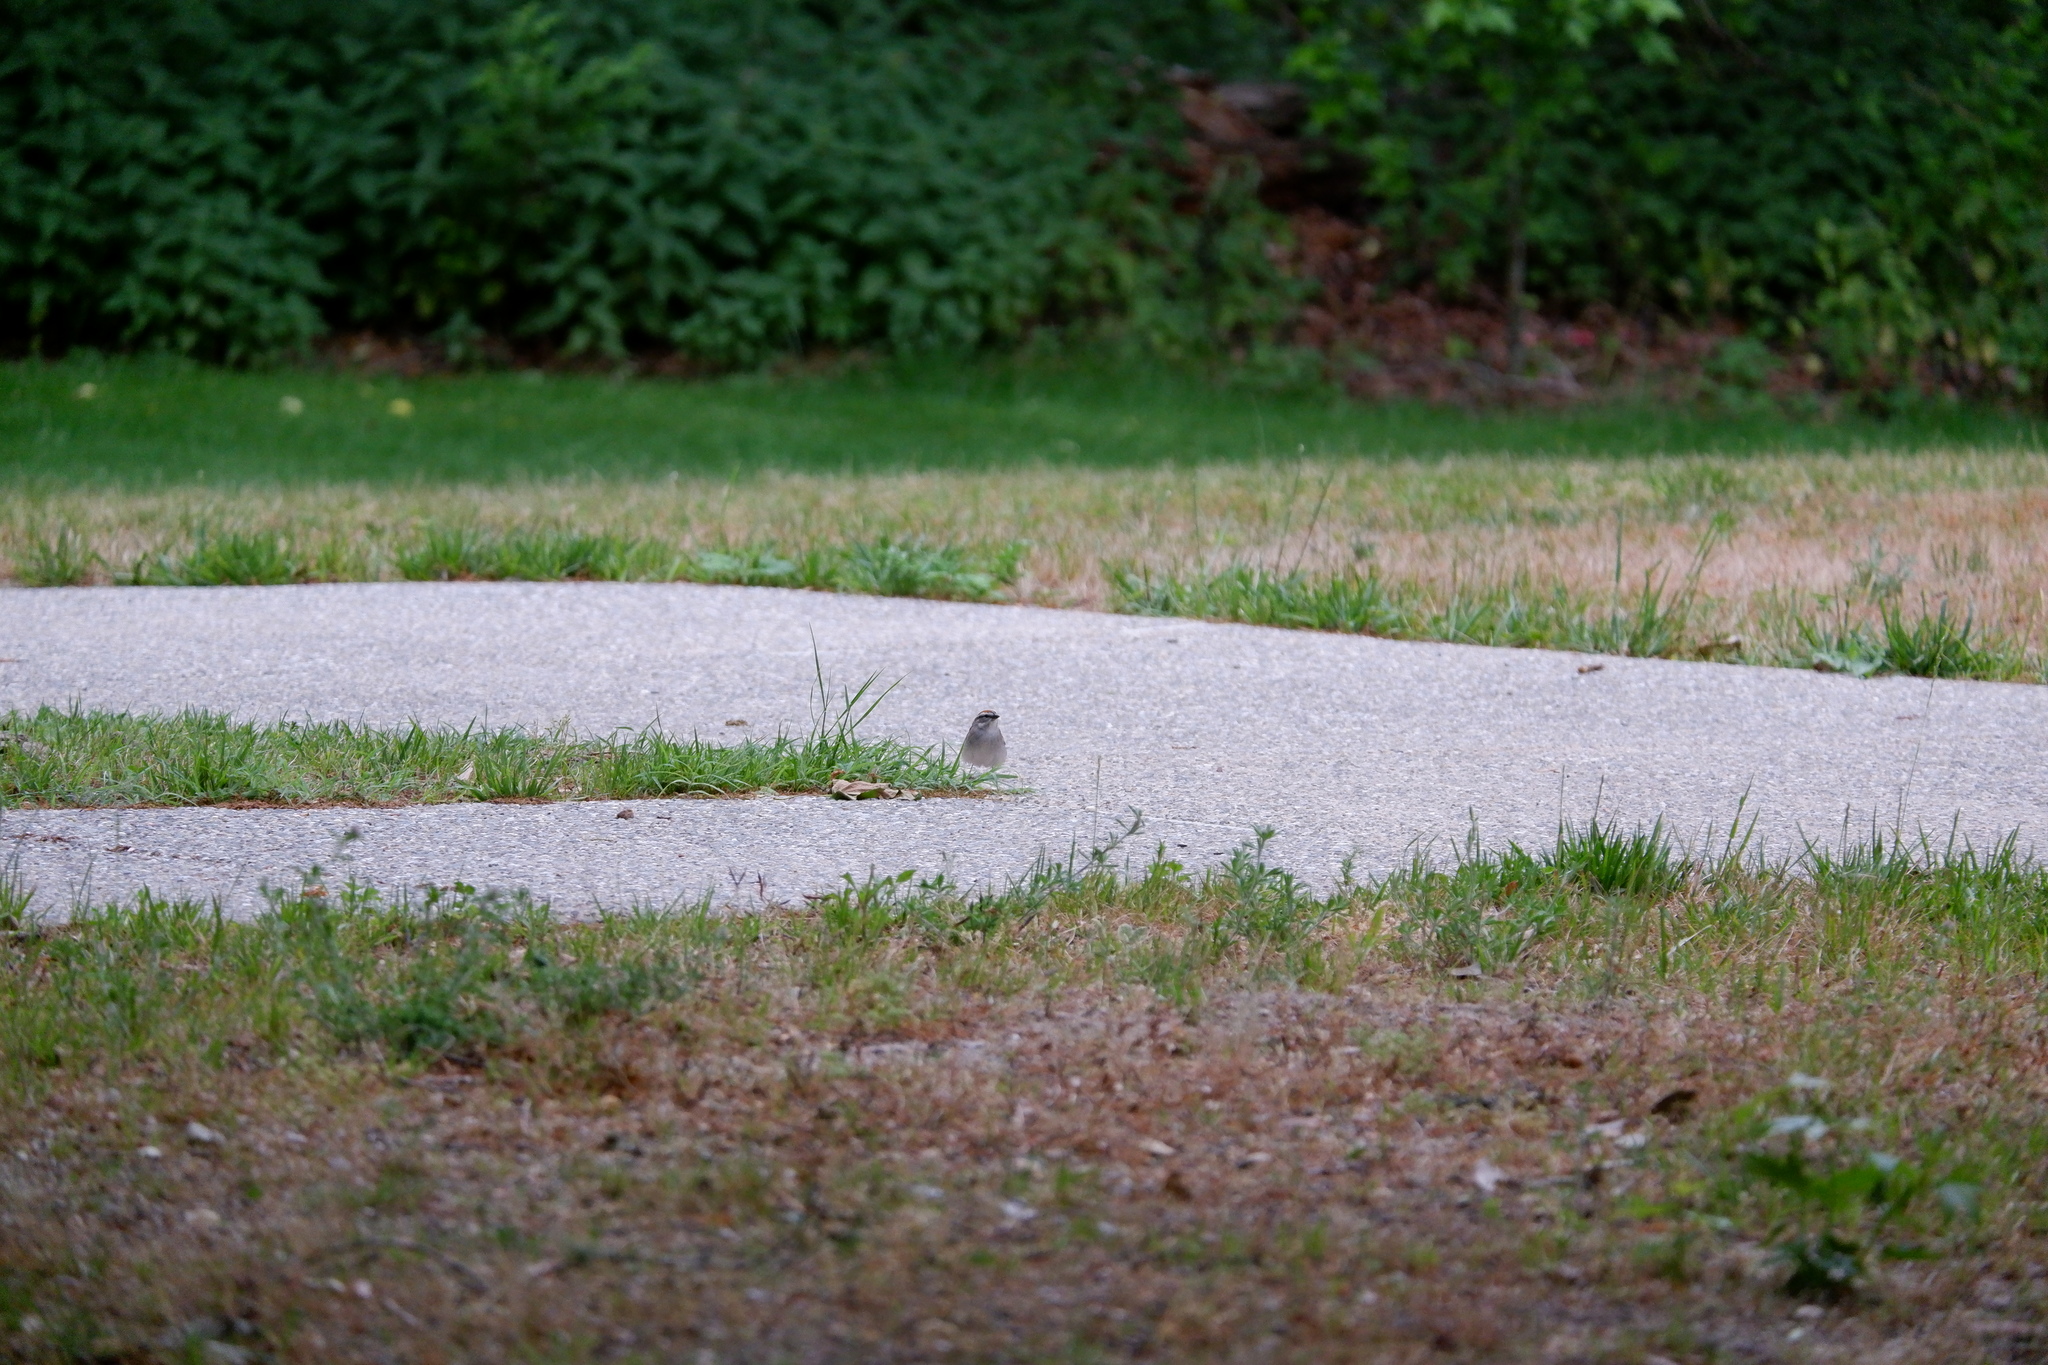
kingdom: Animalia
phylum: Chordata
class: Aves
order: Passeriformes
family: Passerellidae
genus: Spizella
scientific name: Spizella passerina
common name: Chipping sparrow
